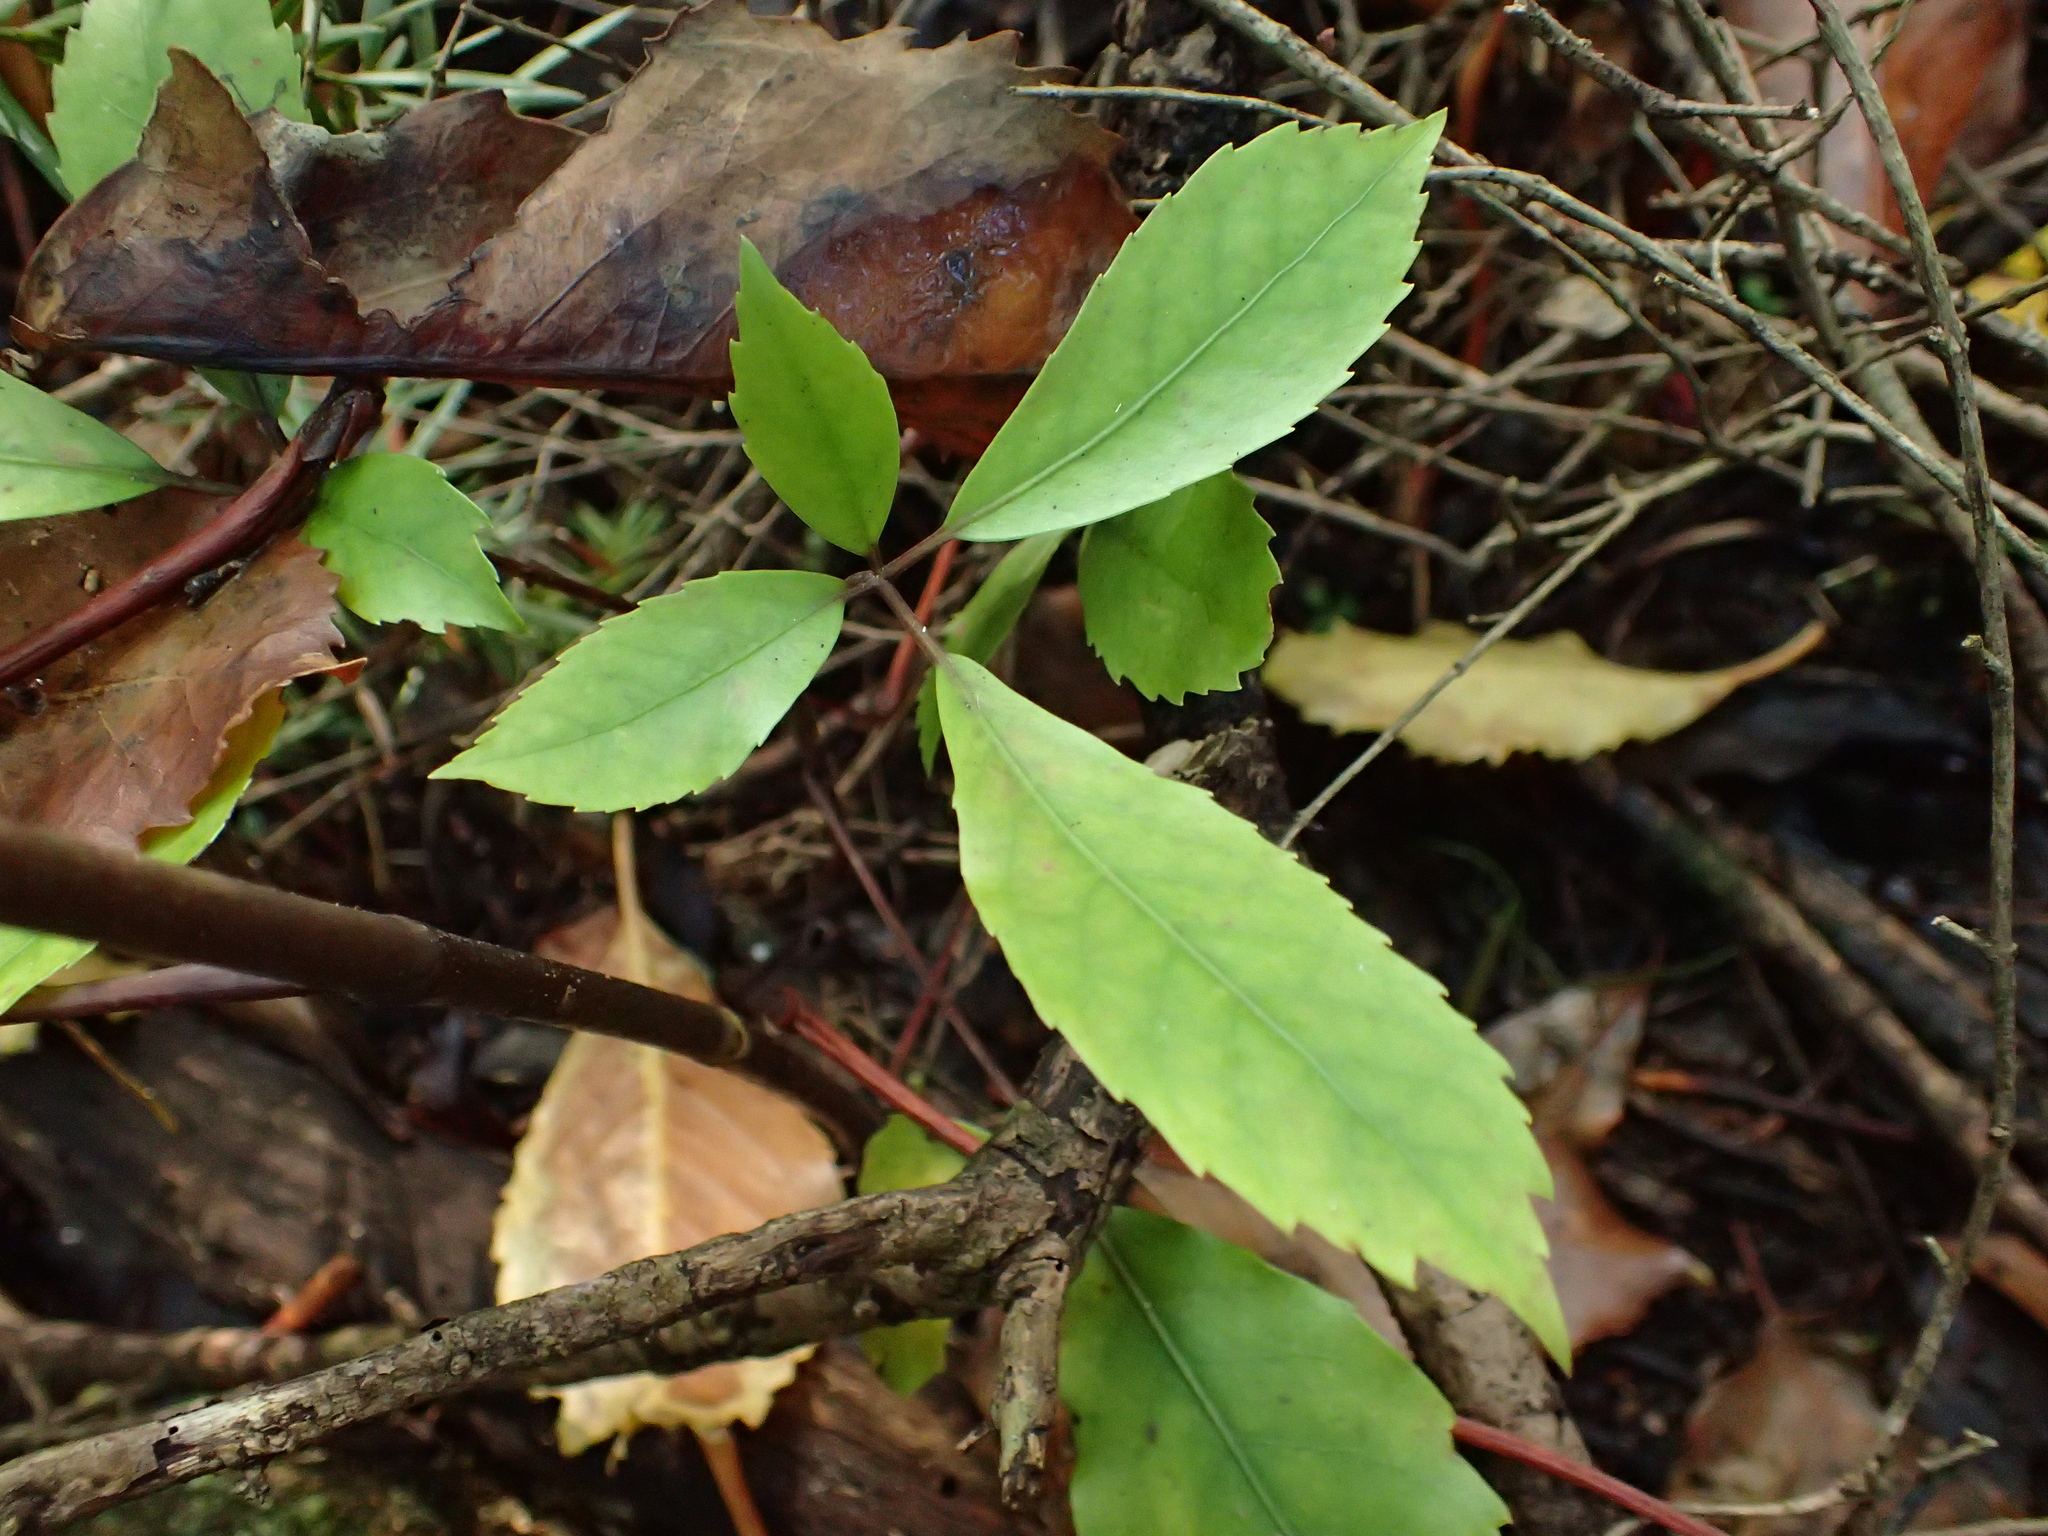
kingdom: Plantae
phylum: Tracheophyta
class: Magnoliopsida
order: Apiales
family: Araliaceae
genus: Neopanax
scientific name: Neopanax arboreus
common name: Five-fingers
